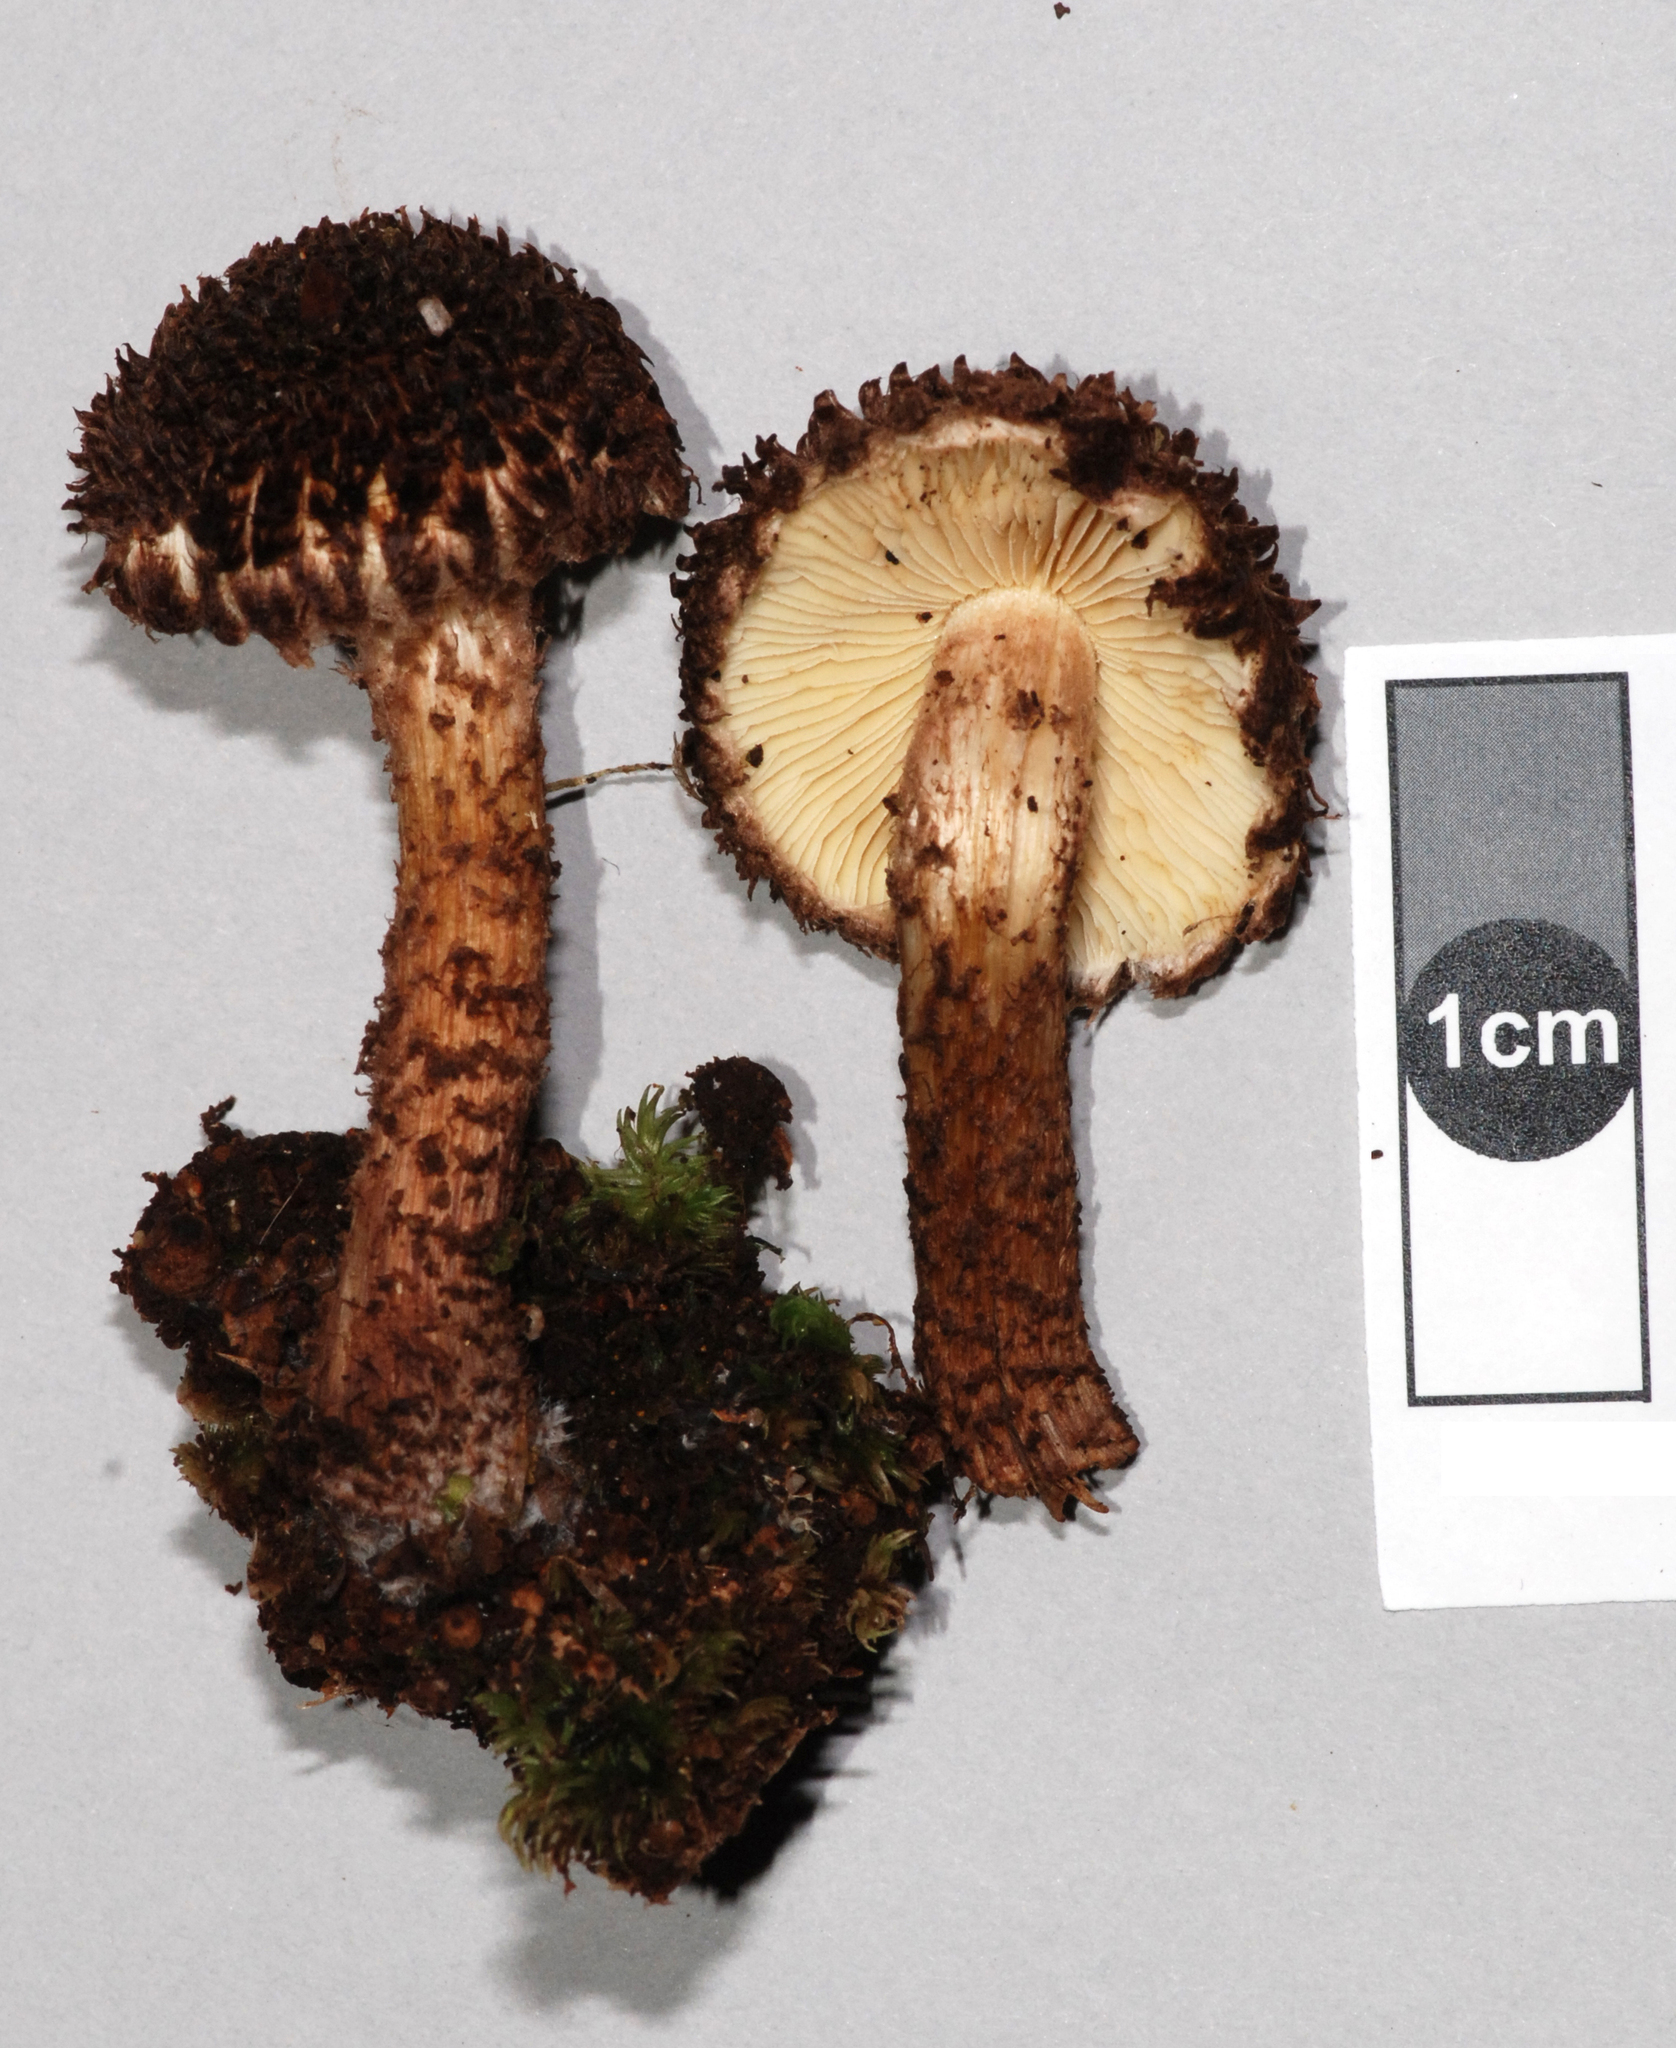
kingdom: Fungi
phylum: Basidiomycota
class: Agaricomycetes
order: Agaricales
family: Inocybaceae
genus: Inocybe
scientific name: Inocybe strobilomyces
